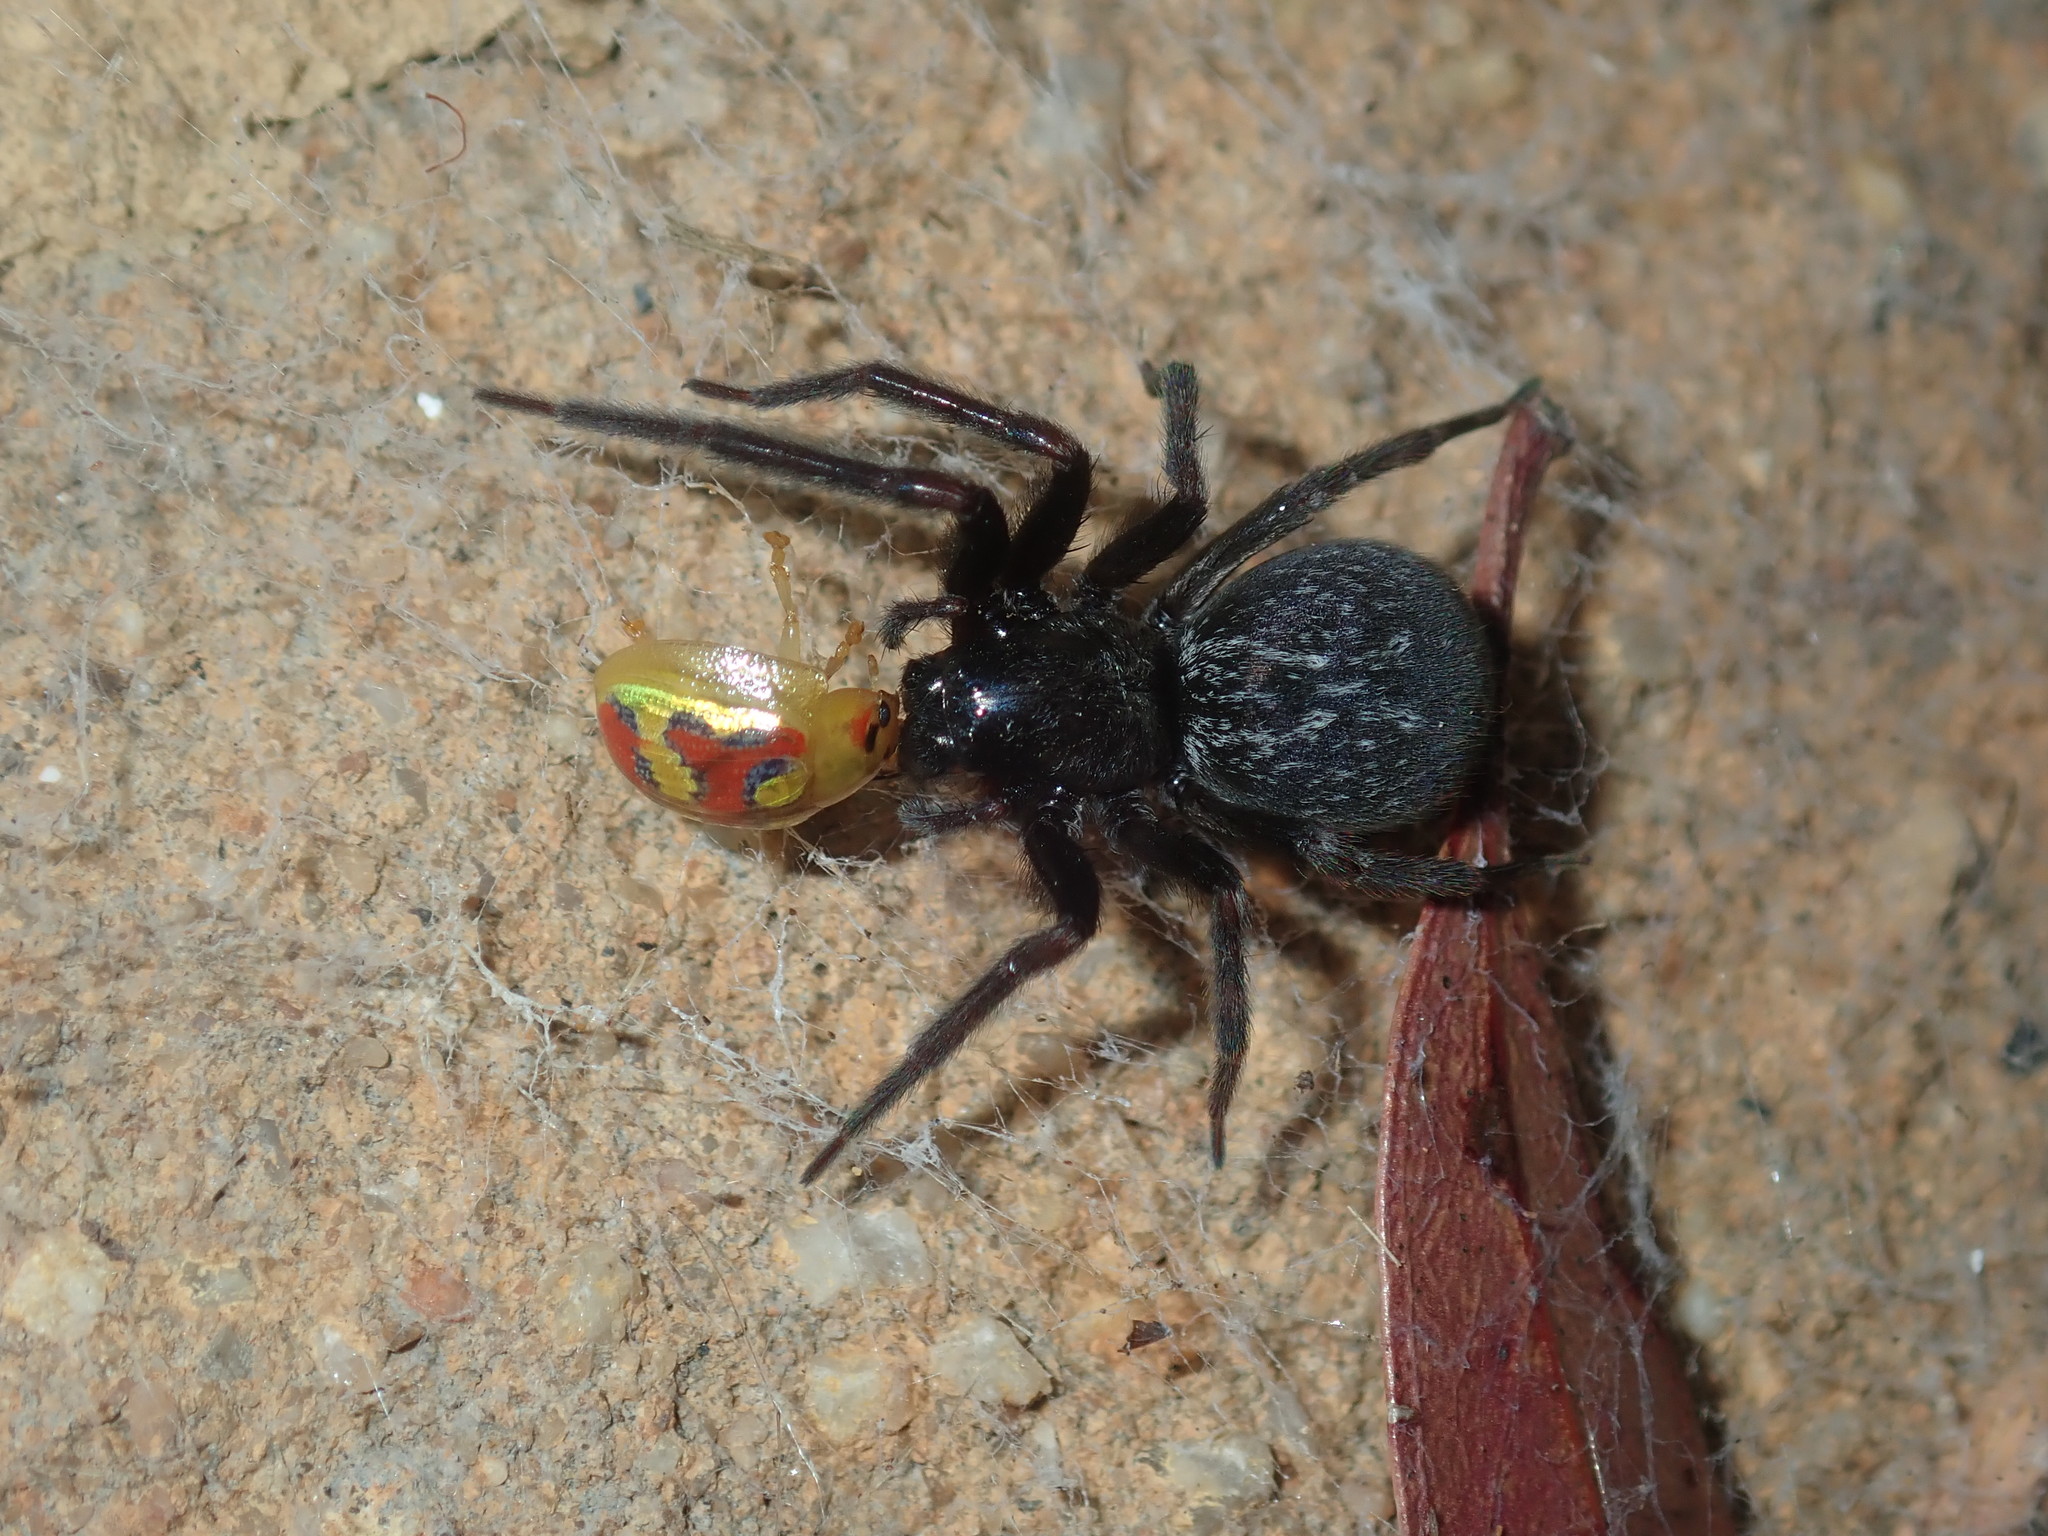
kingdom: Animalia
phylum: Arthropoda
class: Insecta
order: Coleoptera
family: Chrysomelidae
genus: Paropsisterna
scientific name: Paropsisterna
